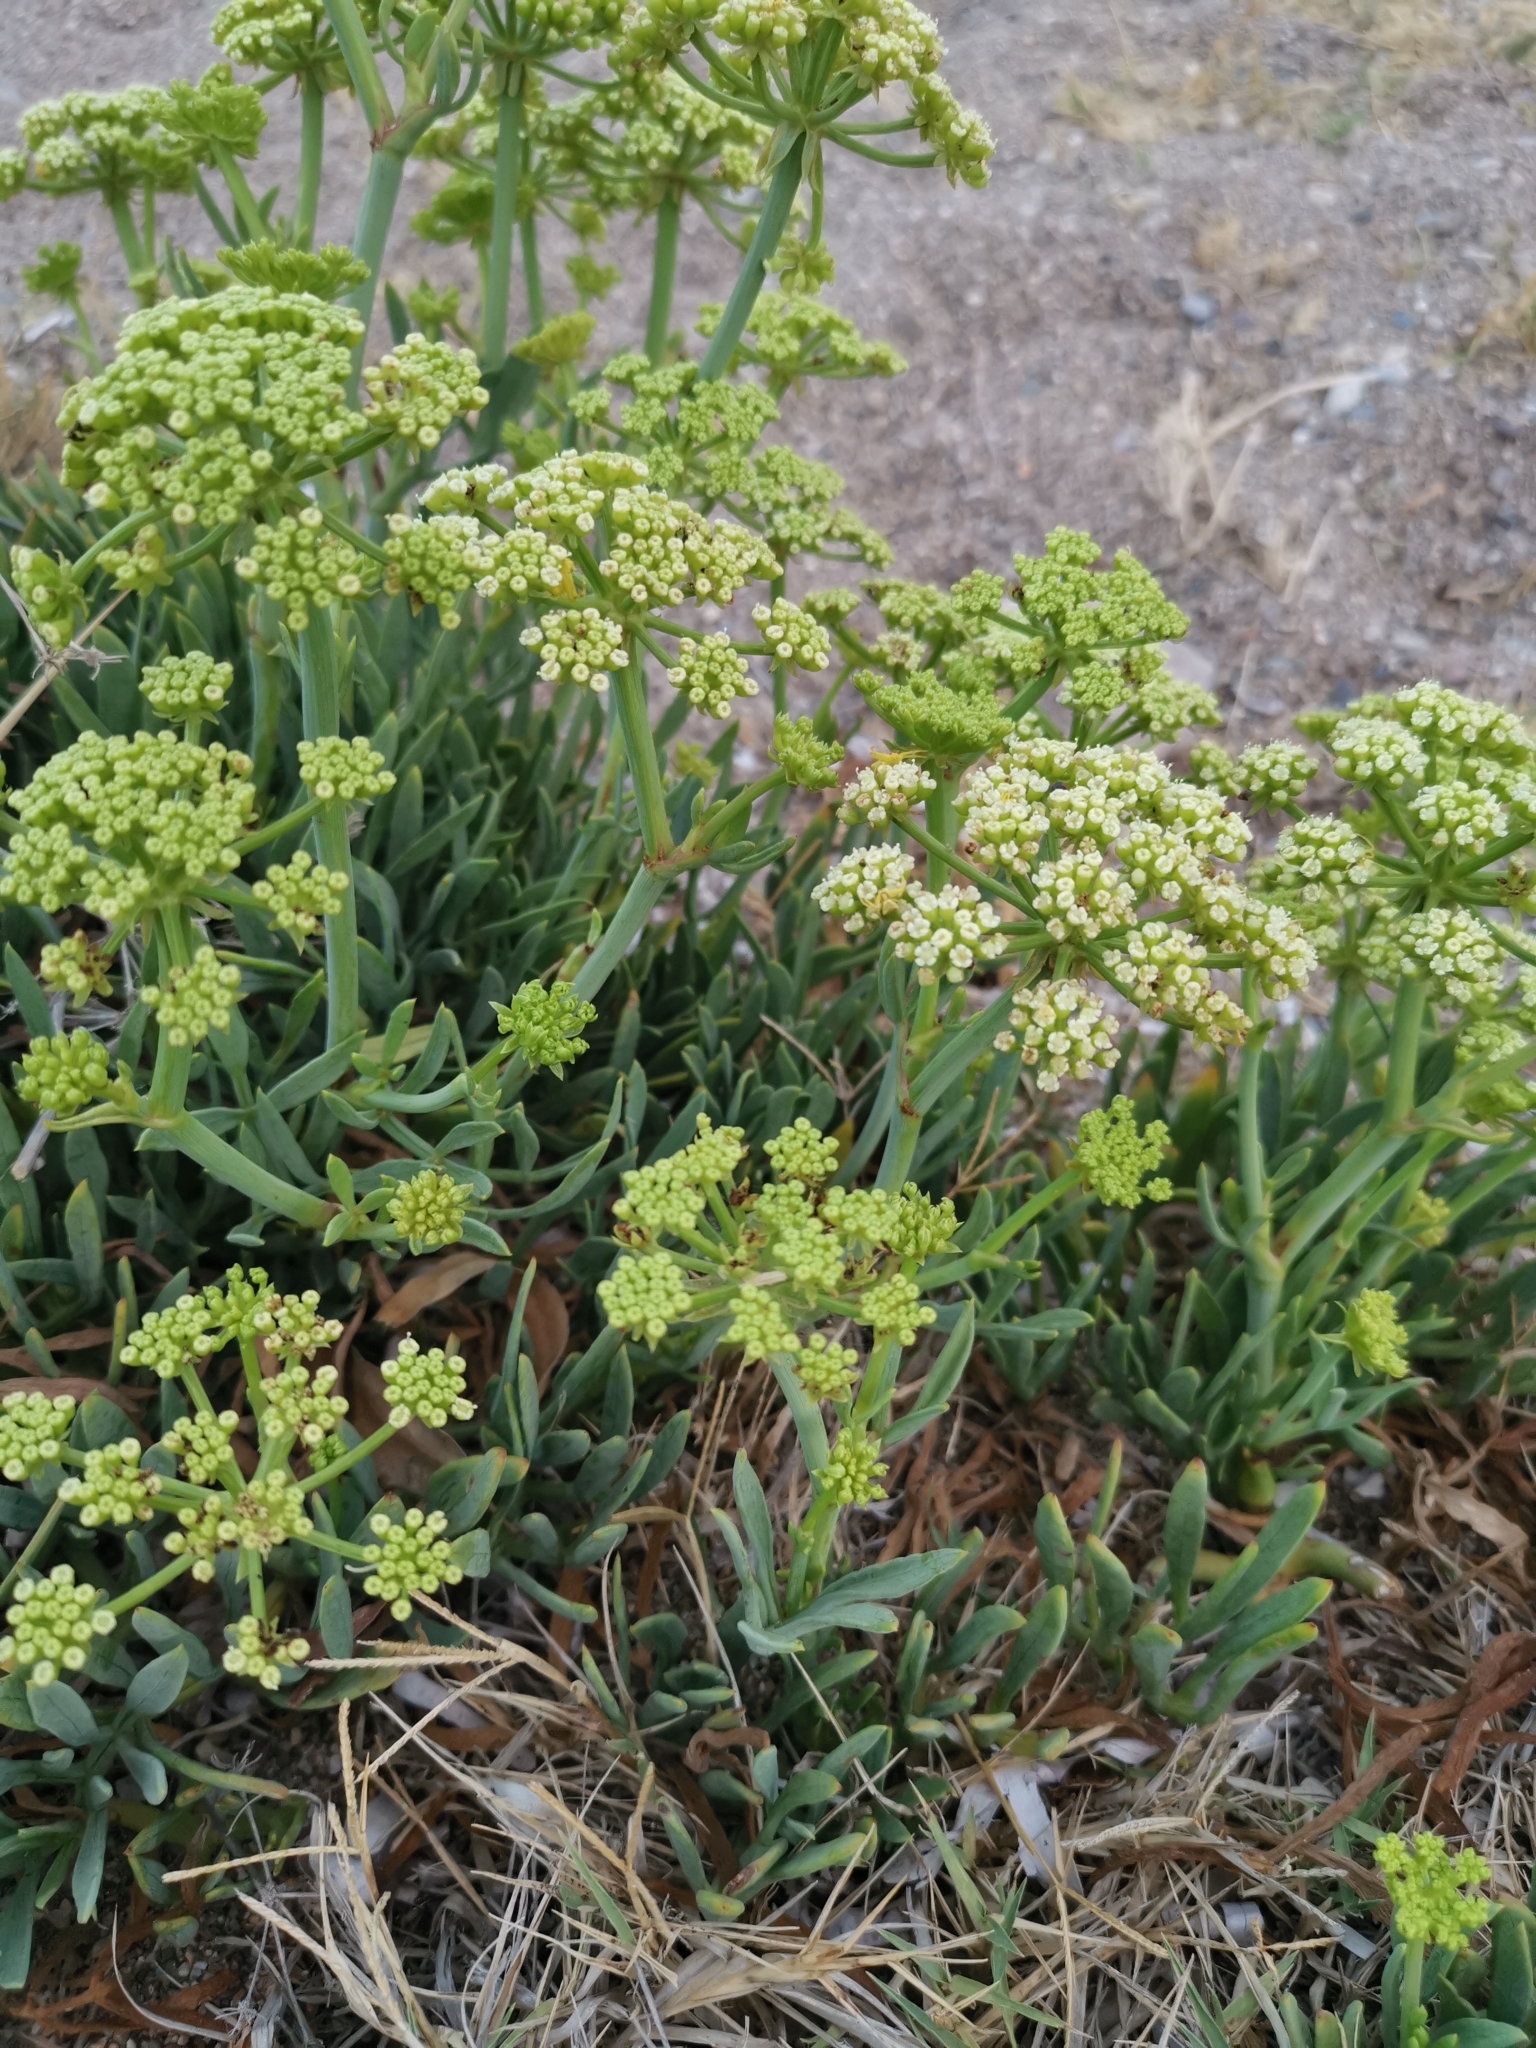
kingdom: Plantae
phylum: Tracheophyta
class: Magnoliopsida
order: Apiales
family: Apiaceae
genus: Crithmum
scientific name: Crithmum maritimum
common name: Rock samphire
